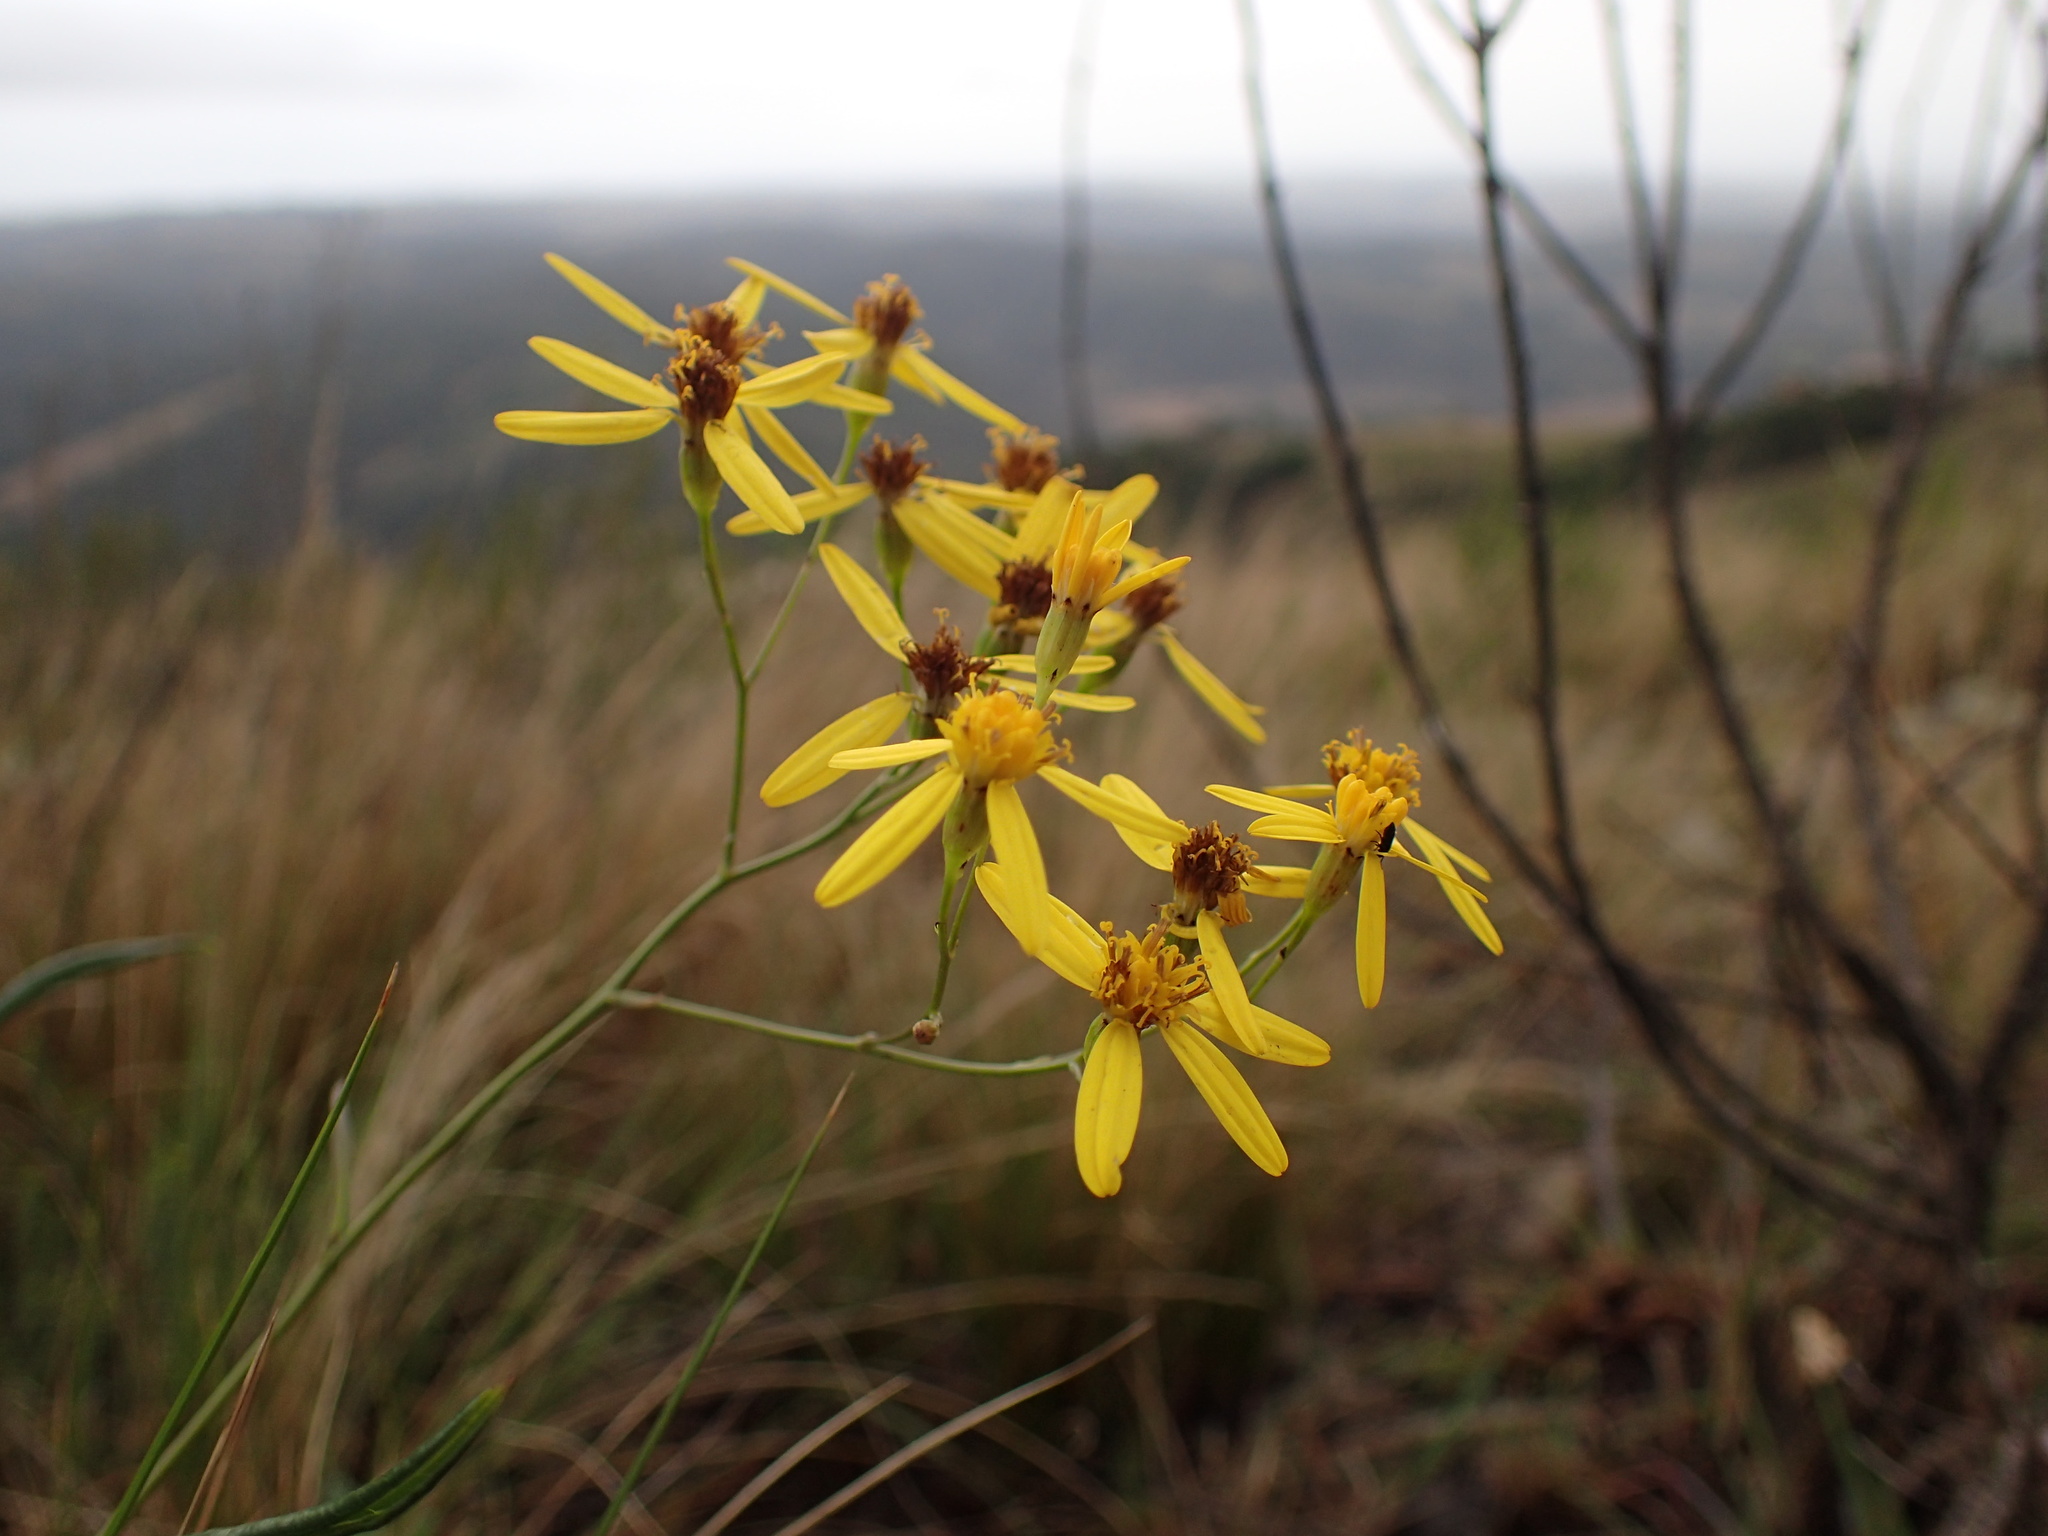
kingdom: Plantae
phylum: Tracheophyta
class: Magnoliopsida
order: Asterales
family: Asteraceae
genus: Senecio
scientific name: Senecio bupleuroides
